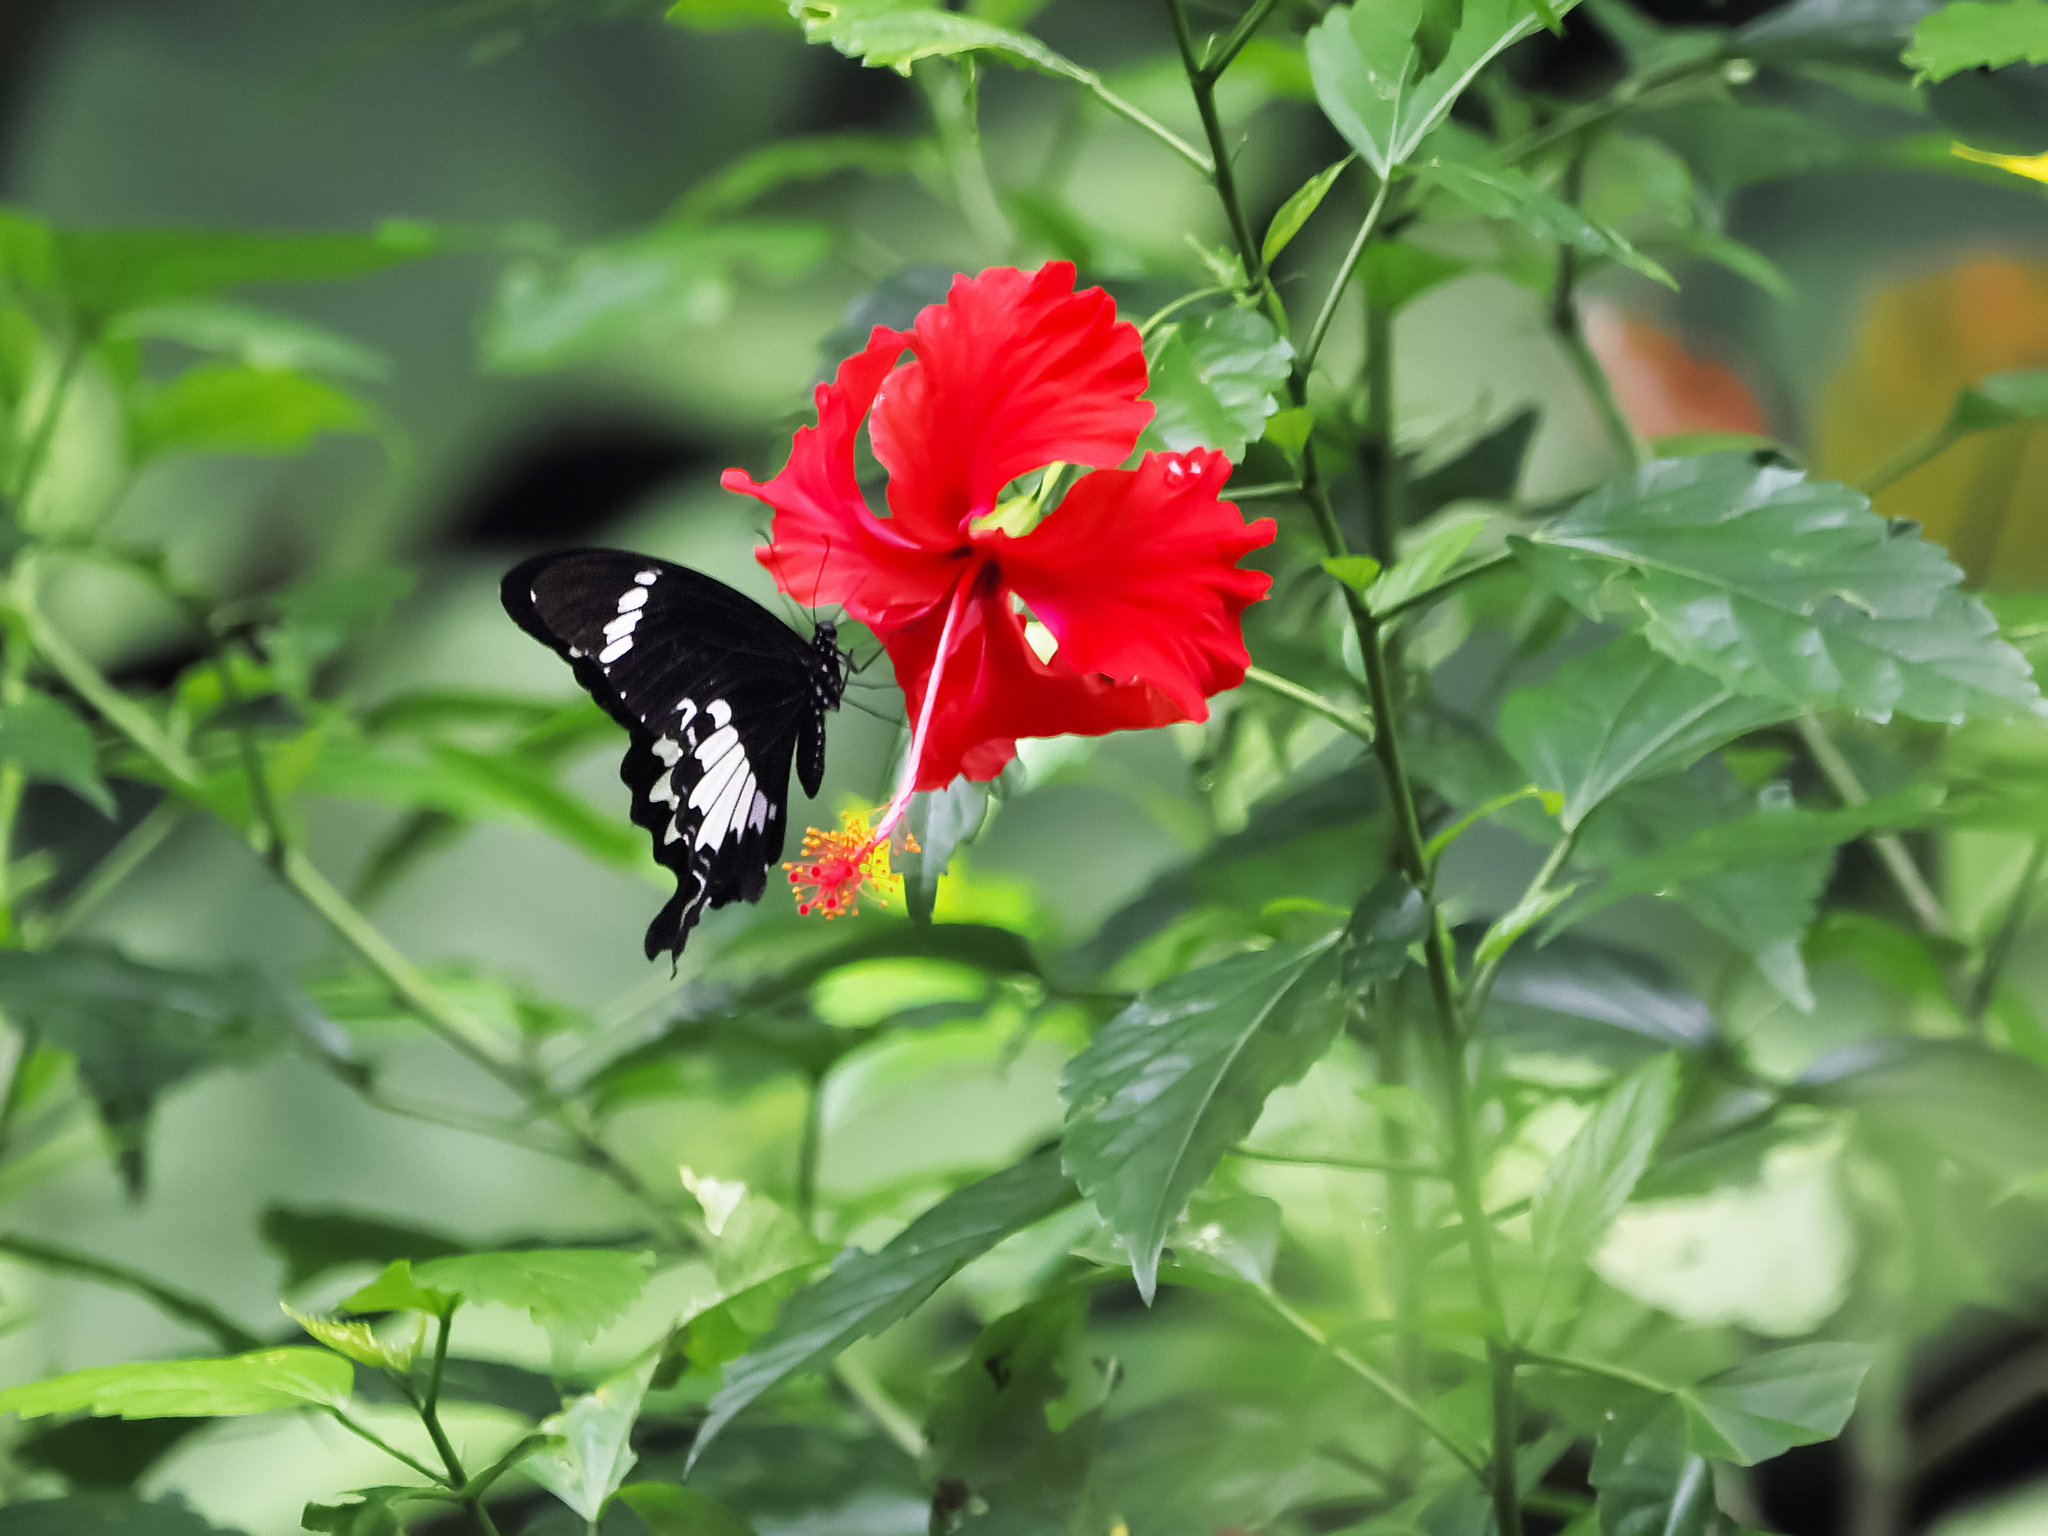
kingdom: Animalia
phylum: Arthropoda
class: Insecta
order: Lepidoptera
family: Papilionidae
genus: Papilio
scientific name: Papilio nephelus
